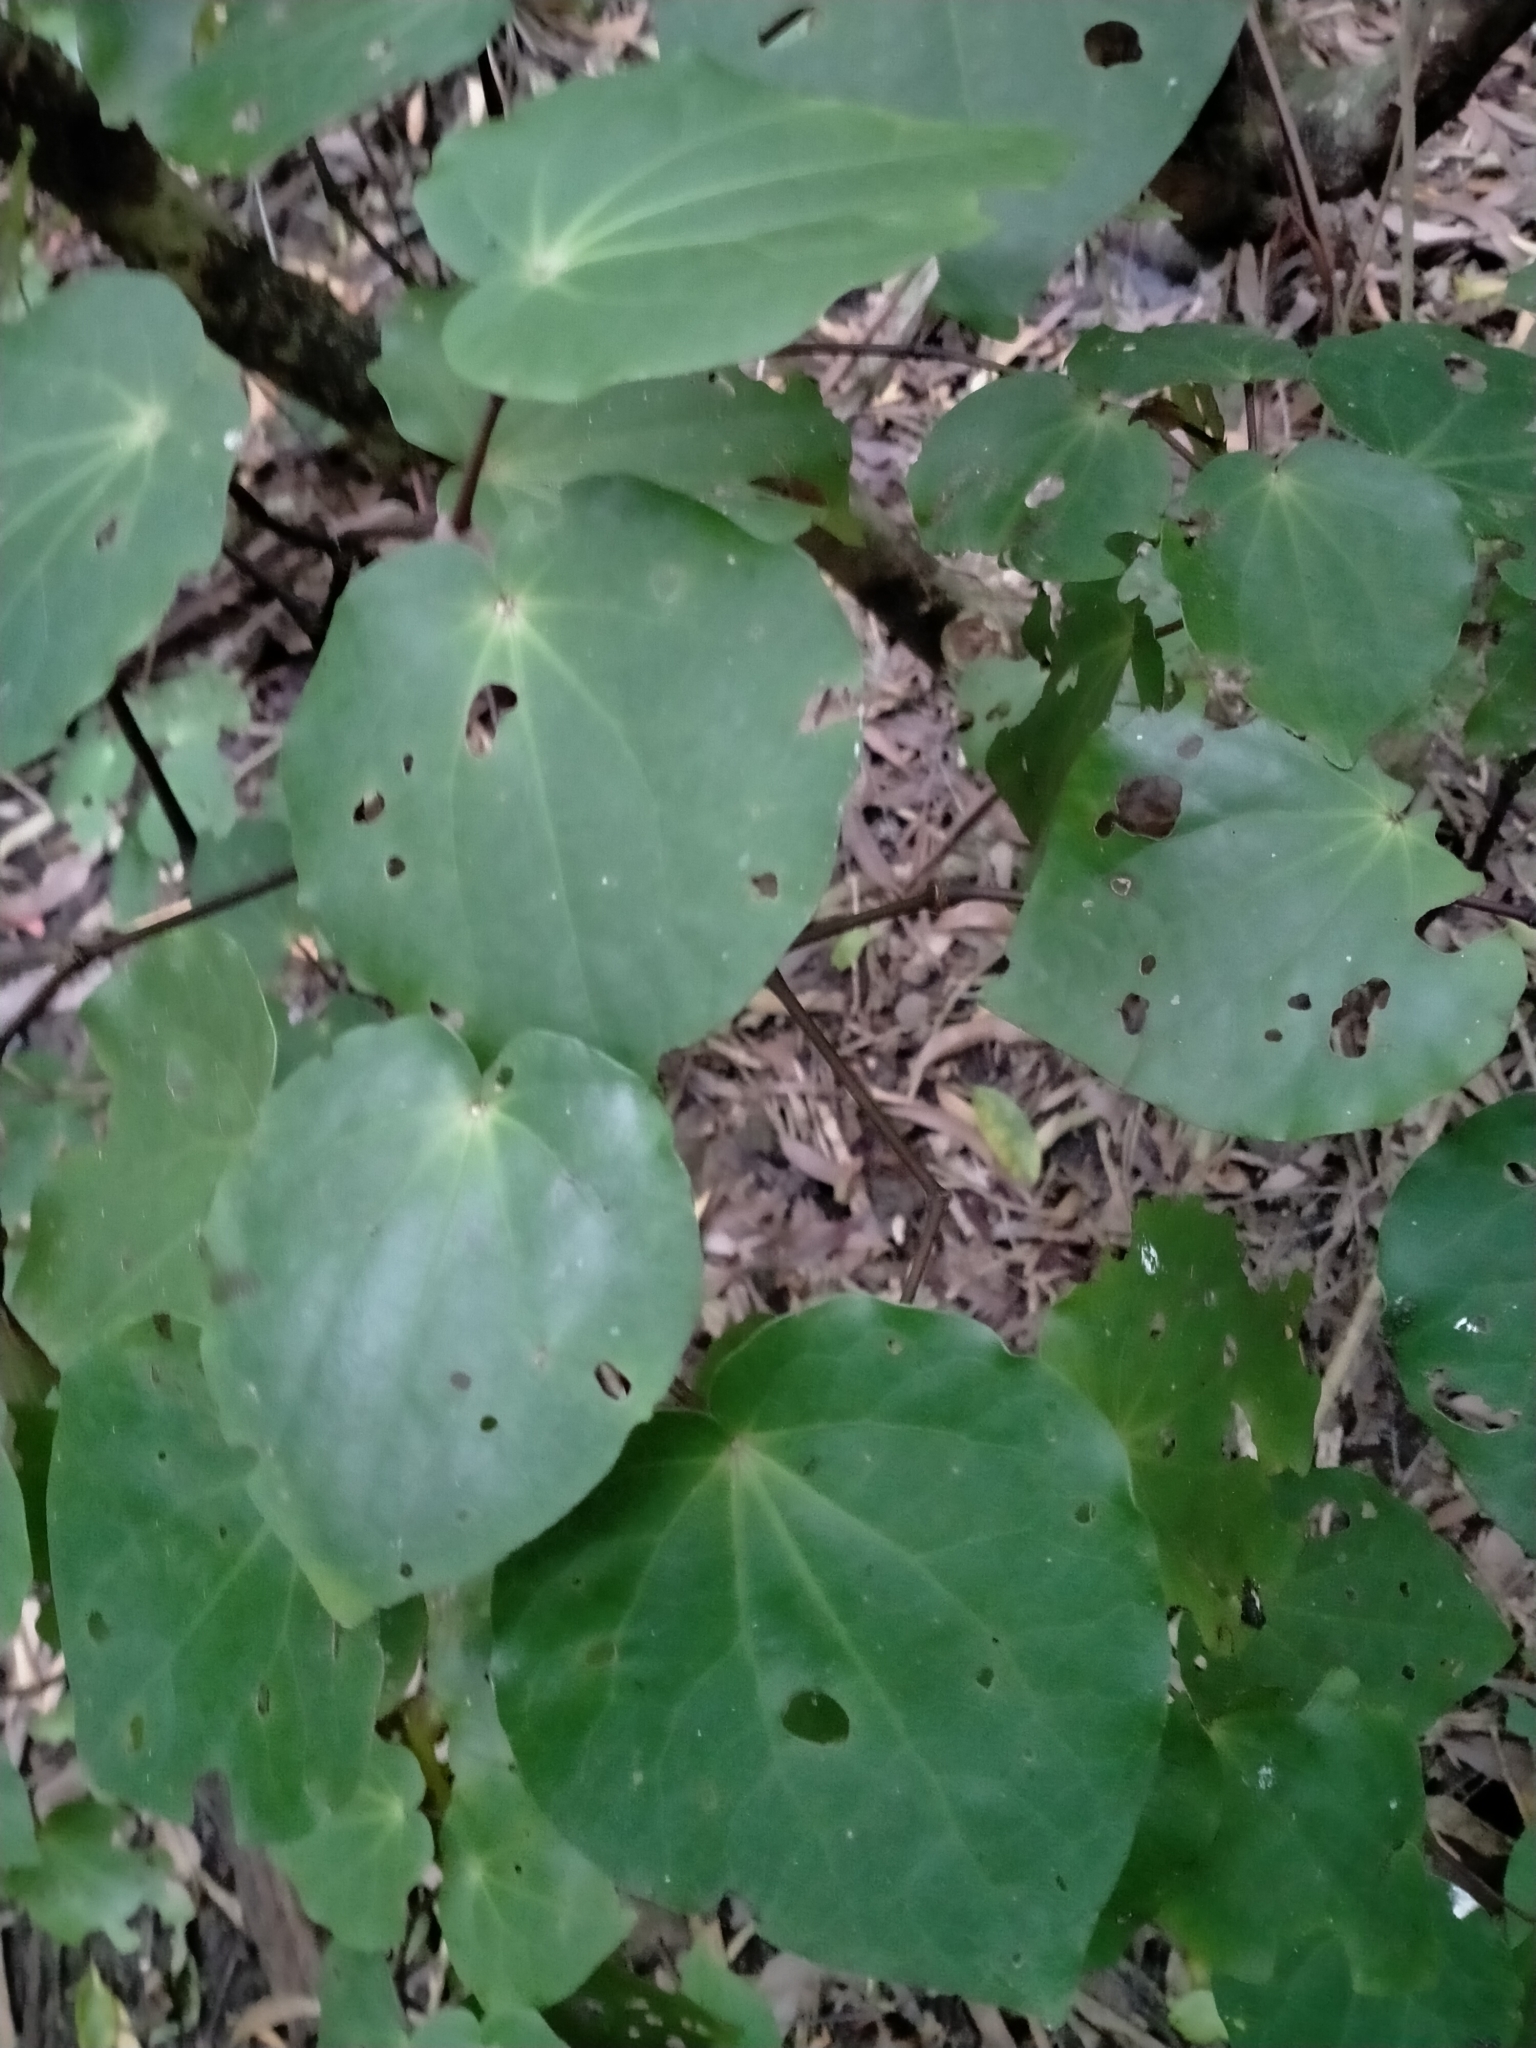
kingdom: Plantae
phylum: Tracheophyta
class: Magnoliopsida
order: Piperales
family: Piperaceae
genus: Macropiper
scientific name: Macropiper excelsum
